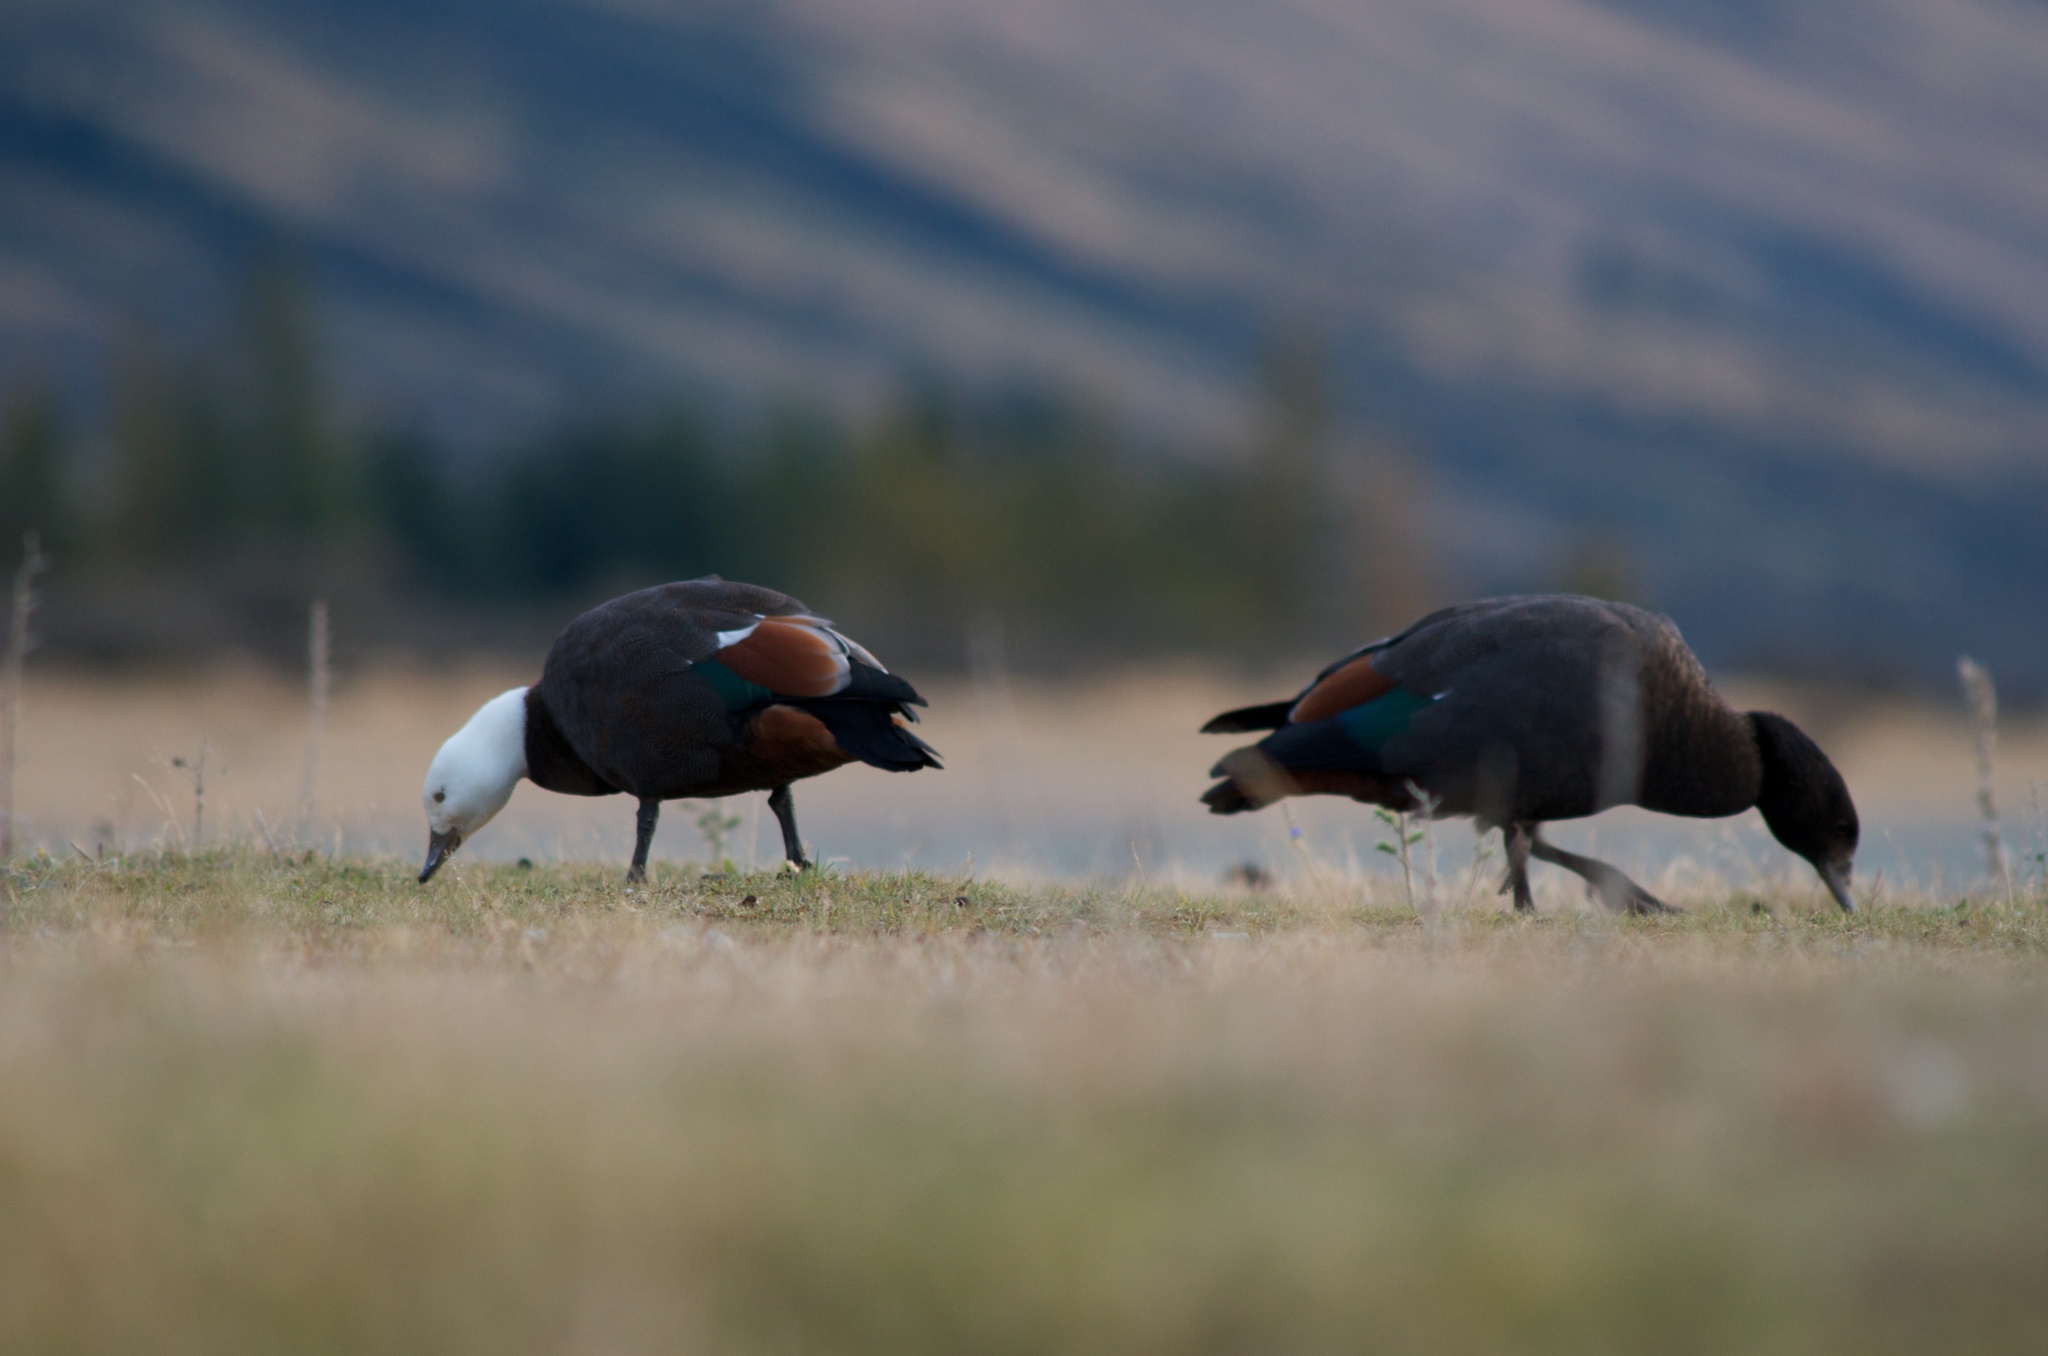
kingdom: Animalia
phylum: Chordata
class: Aves
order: Anseriformes
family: Anatidae
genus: Tadorna
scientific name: Tadorna variegata
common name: Paradise shelduck
